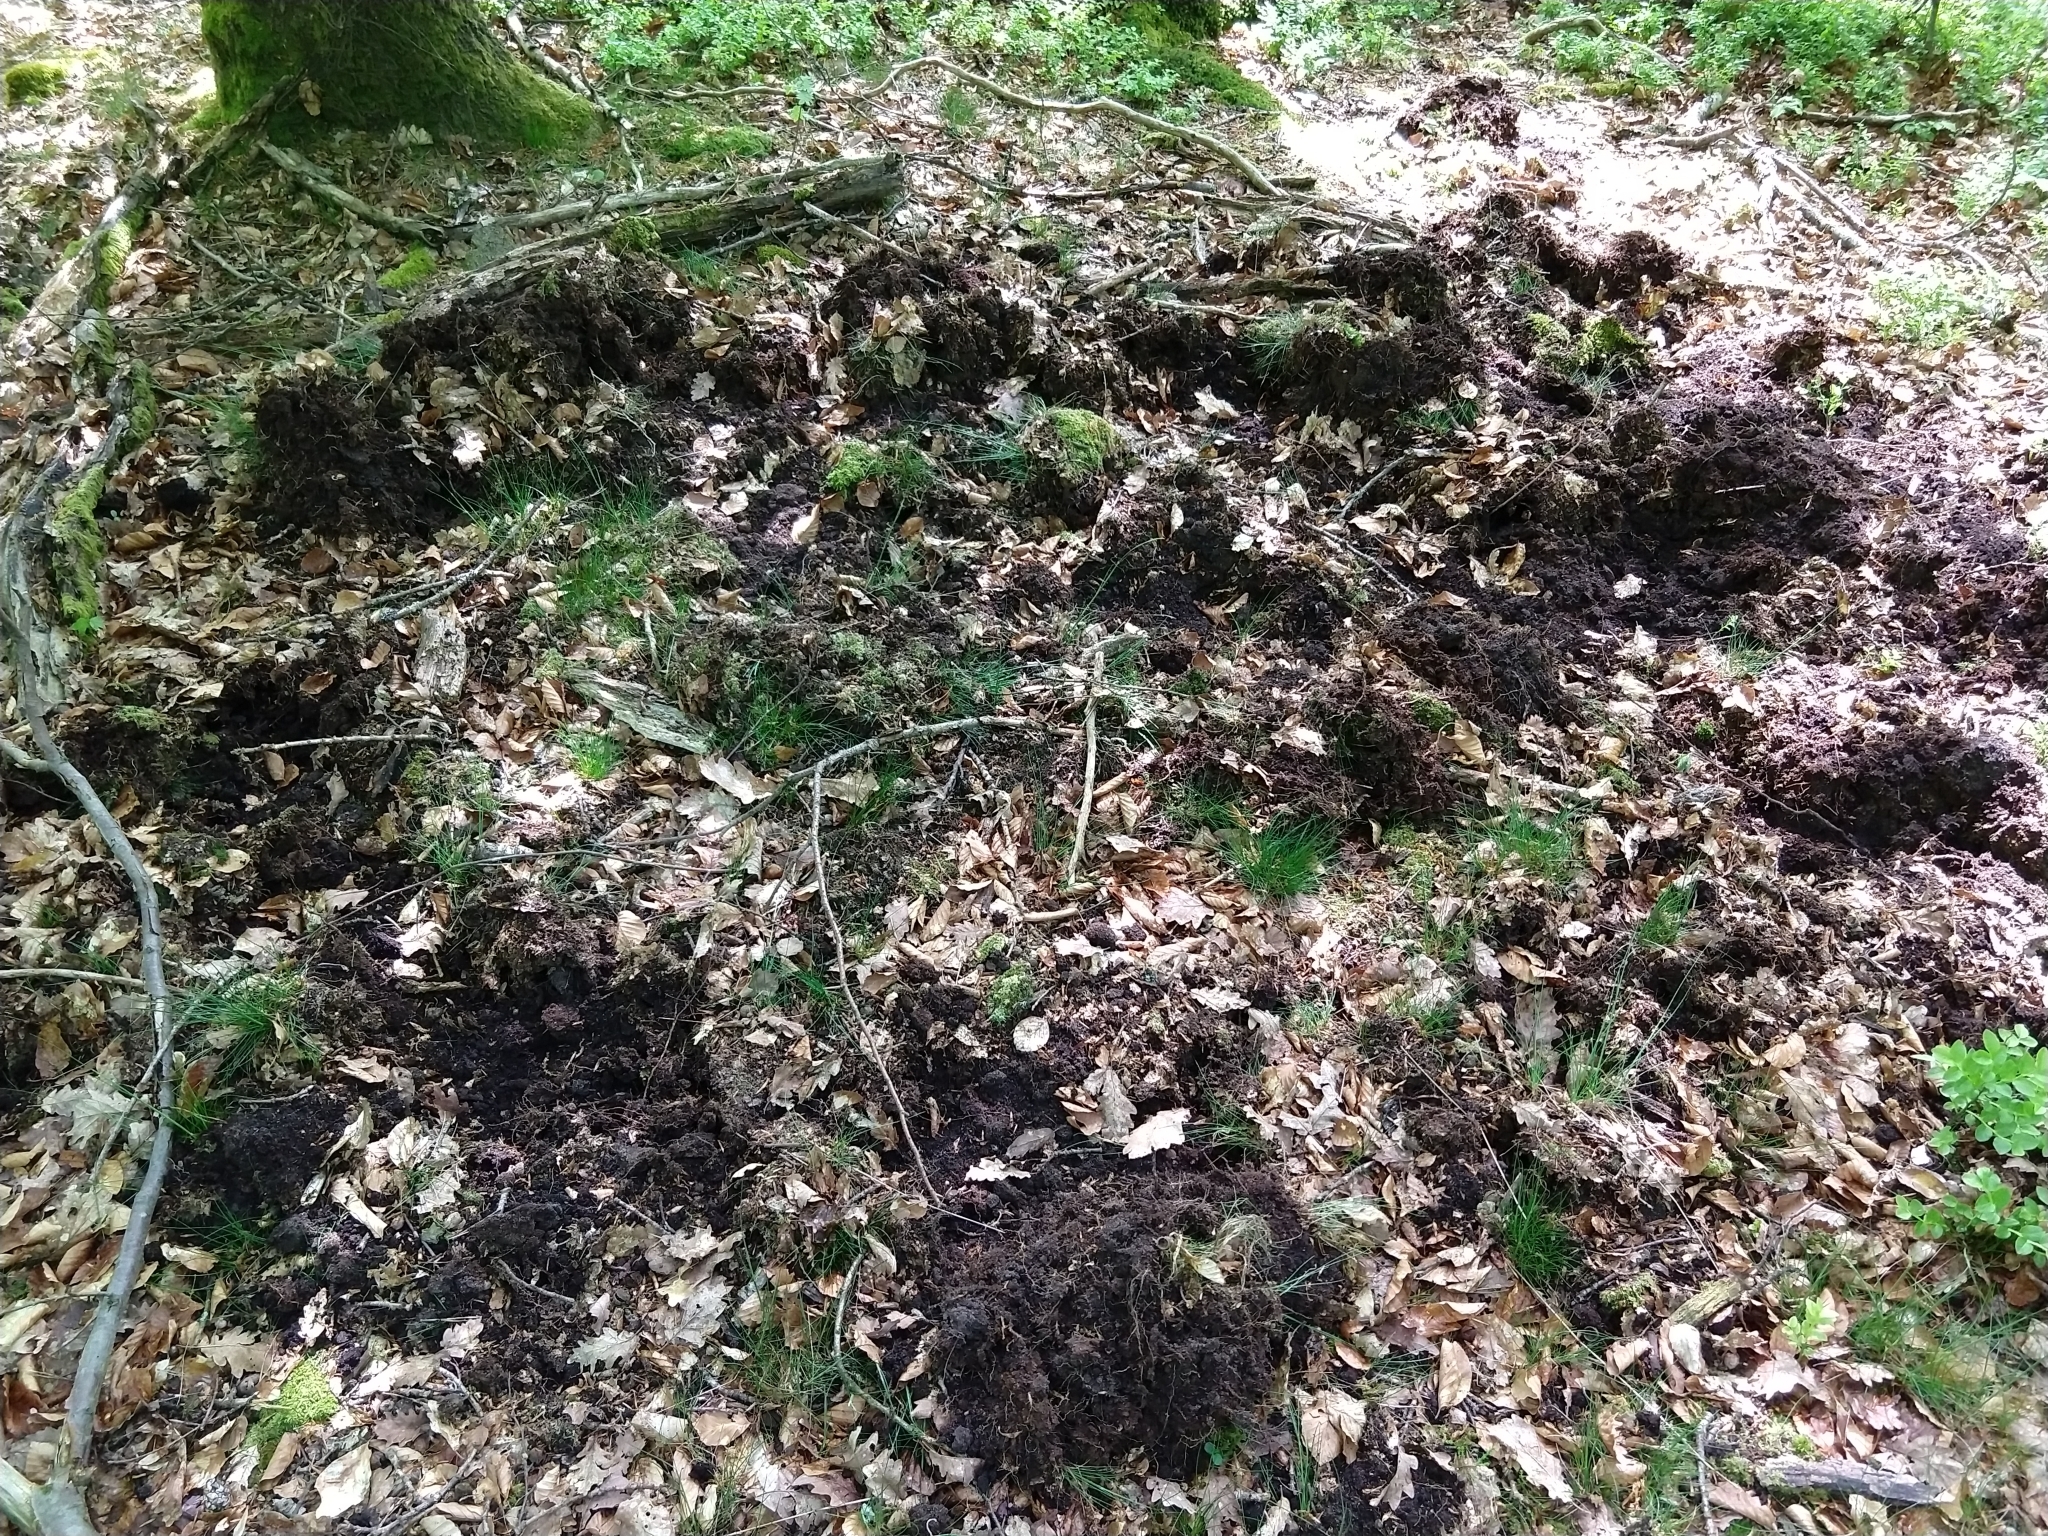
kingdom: Animalia
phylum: Chordata
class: Mammalia
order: Artiodactyla
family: Suidae
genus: Sus
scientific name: Sus scrofa
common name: Wild boar
